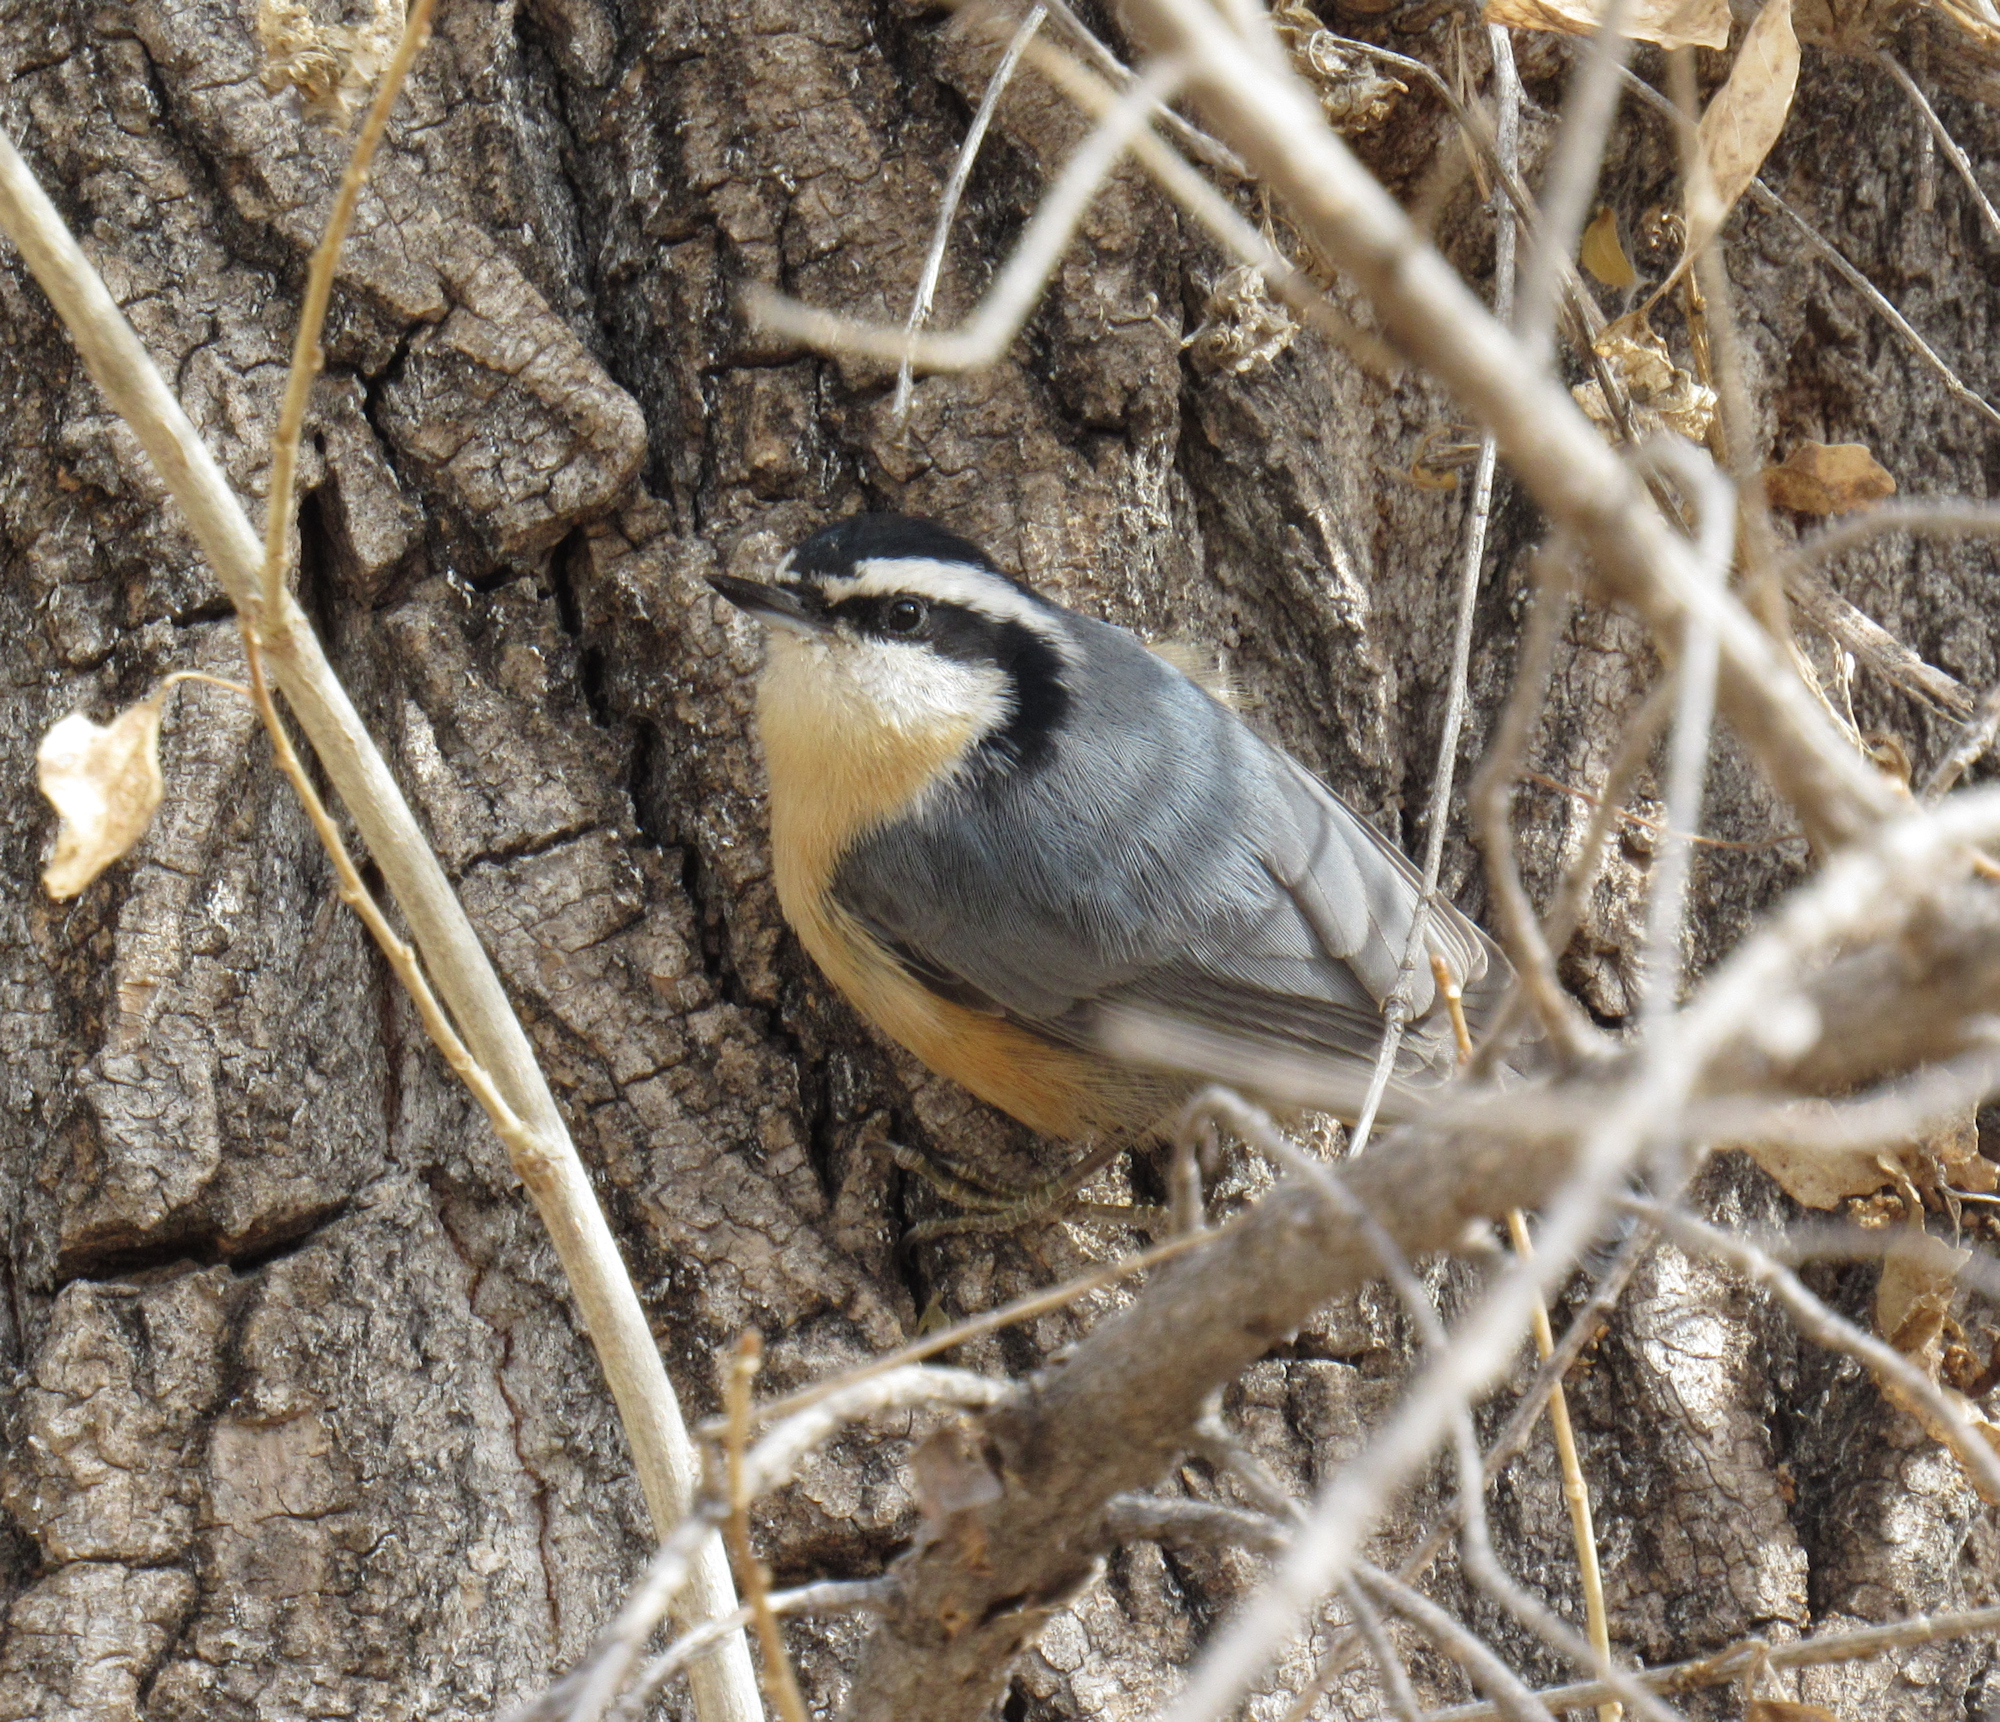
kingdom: Animalia
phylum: Chordata
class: Aves
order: Passeriformes
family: Sittidae
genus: Sitta
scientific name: Sitta canadensis
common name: Red-breasted nuthatch
